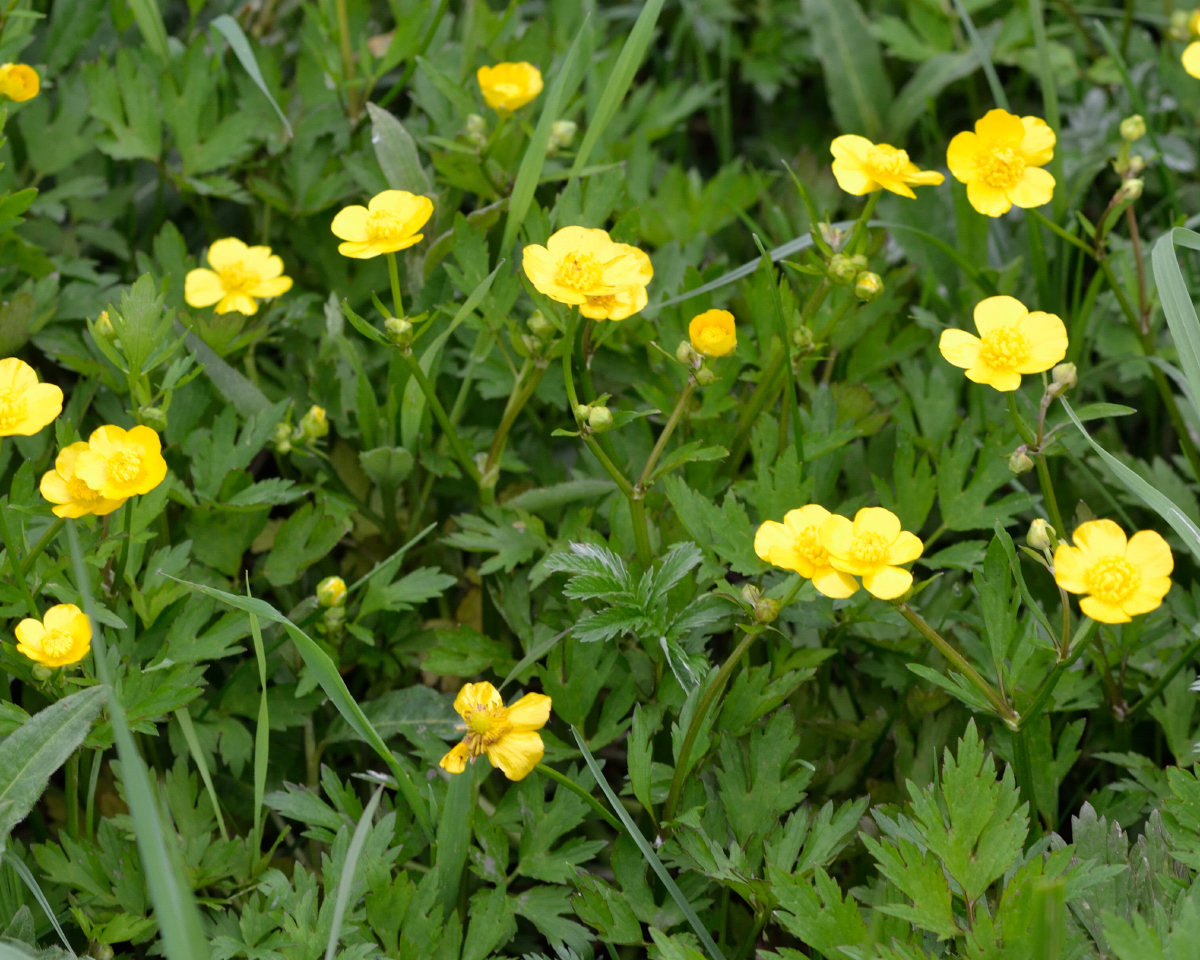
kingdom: Plantae
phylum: Tracheophyta
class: Magnoliopsida
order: Ranunculales
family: Ranunculaceae
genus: Ranunculus
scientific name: Ranunculus repens
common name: Creeping buttercup
